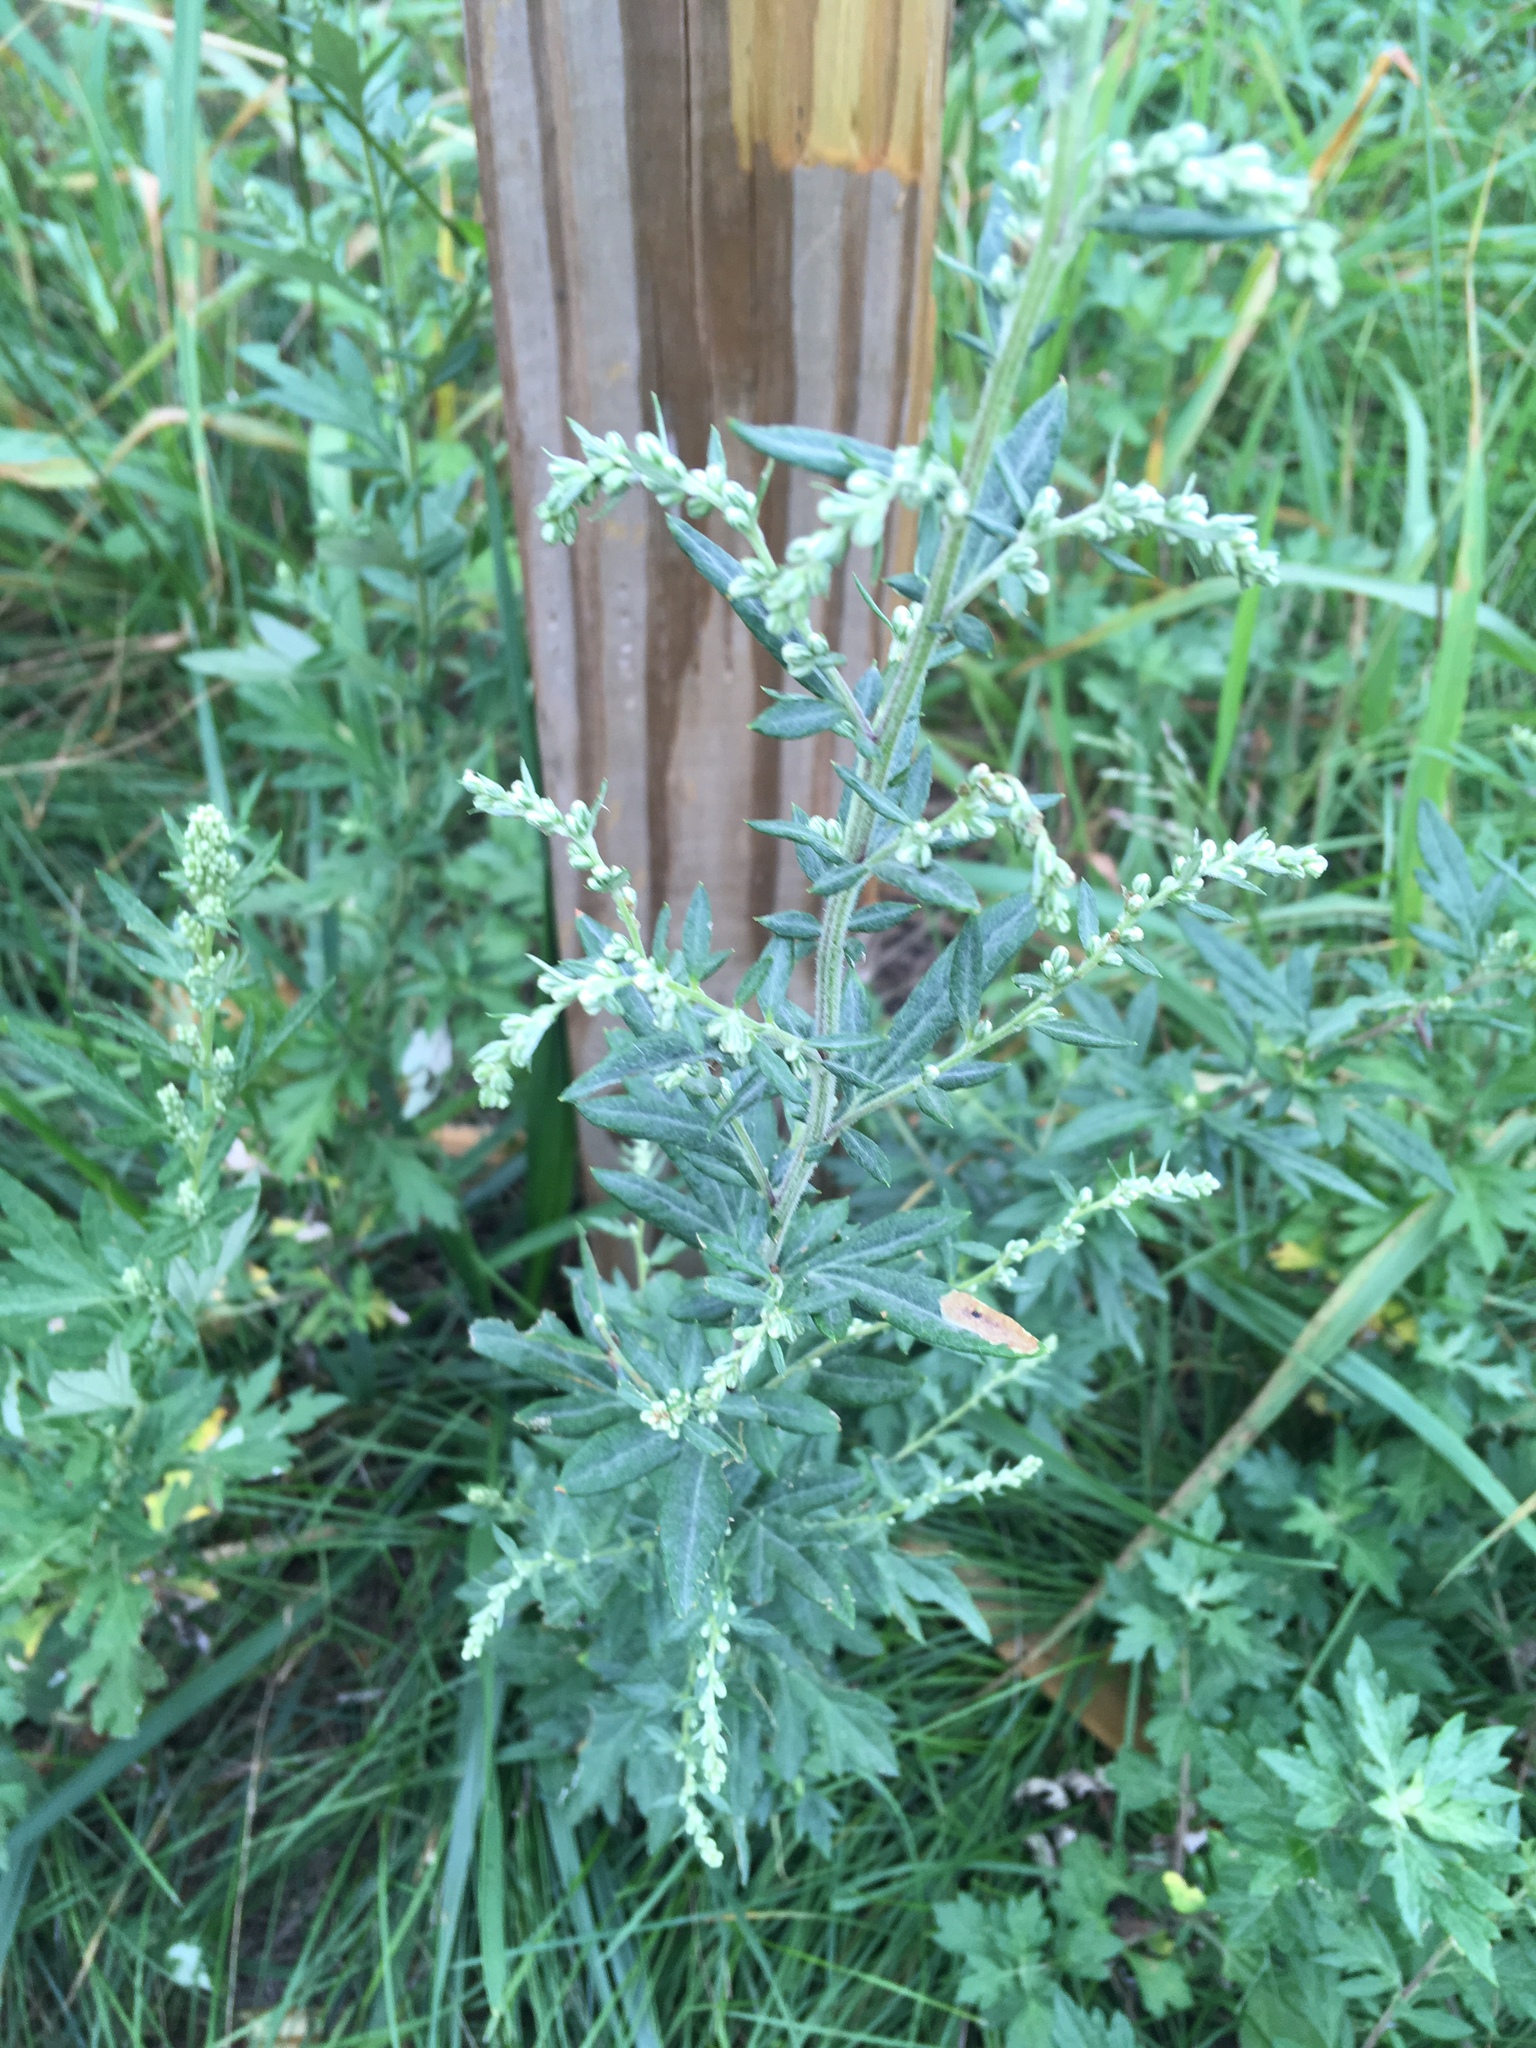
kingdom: Plantae
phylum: Tracheophyta
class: Magnoliopsida
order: Asterales
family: Asteraceae
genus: Artemisia
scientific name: Artemisia vulgaris
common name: Mugwort
